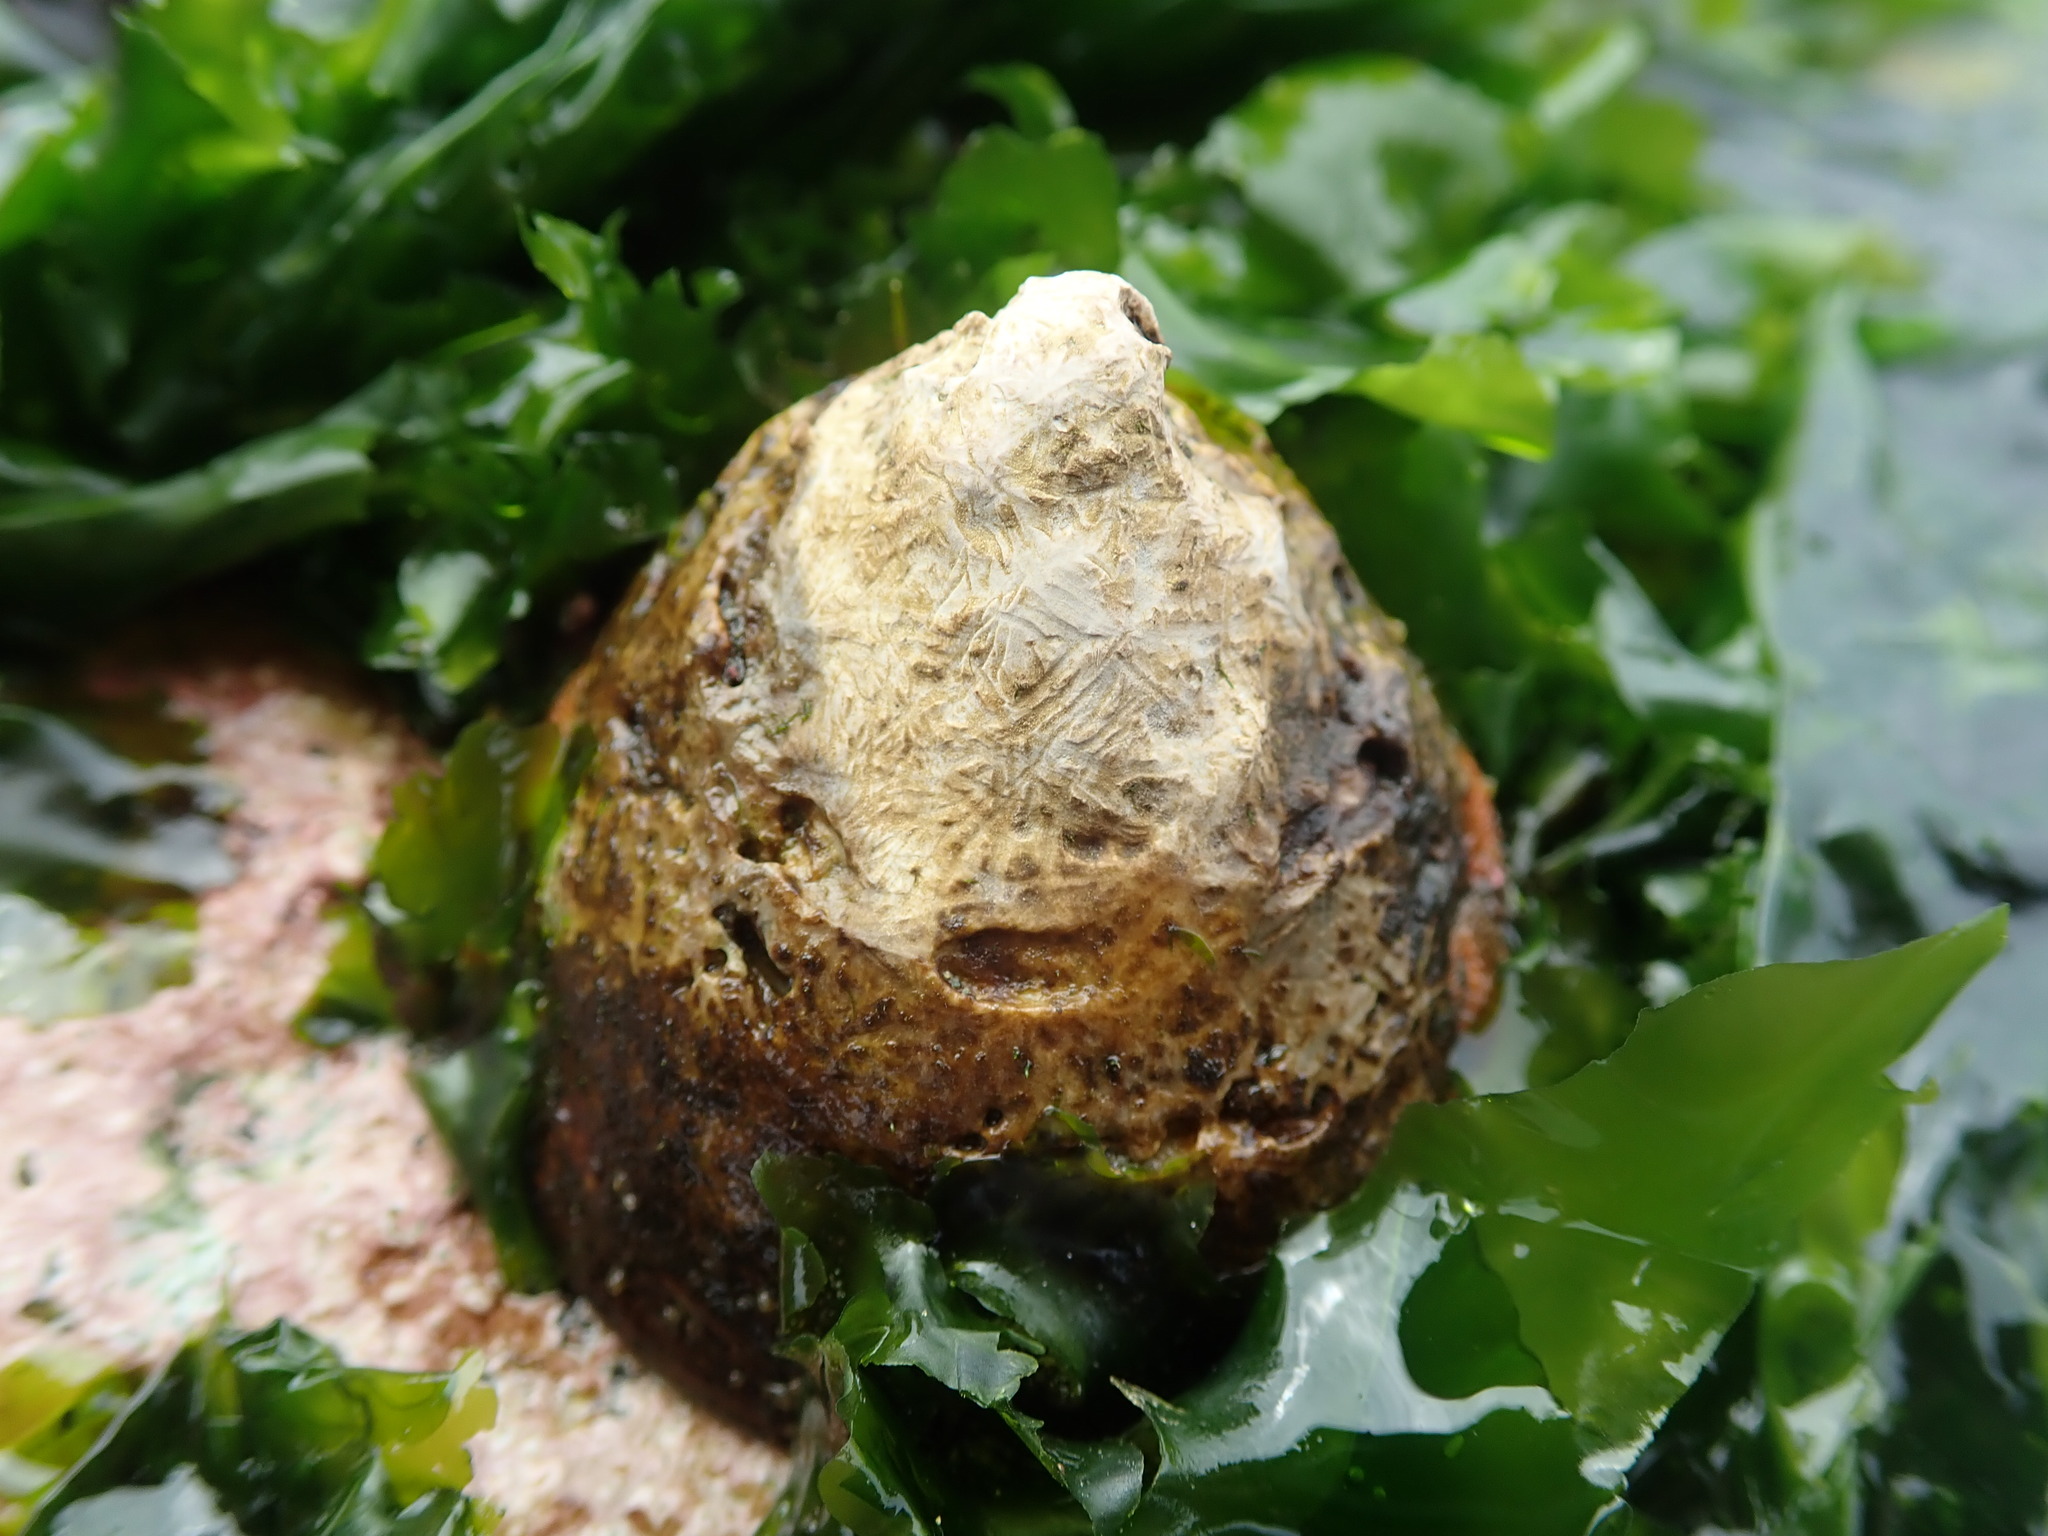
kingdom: Animalia
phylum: Mollusca
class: Gastropoda
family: Acmaeidae
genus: Acmaea
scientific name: Acmaea mitra
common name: Pacific white cap limpet
